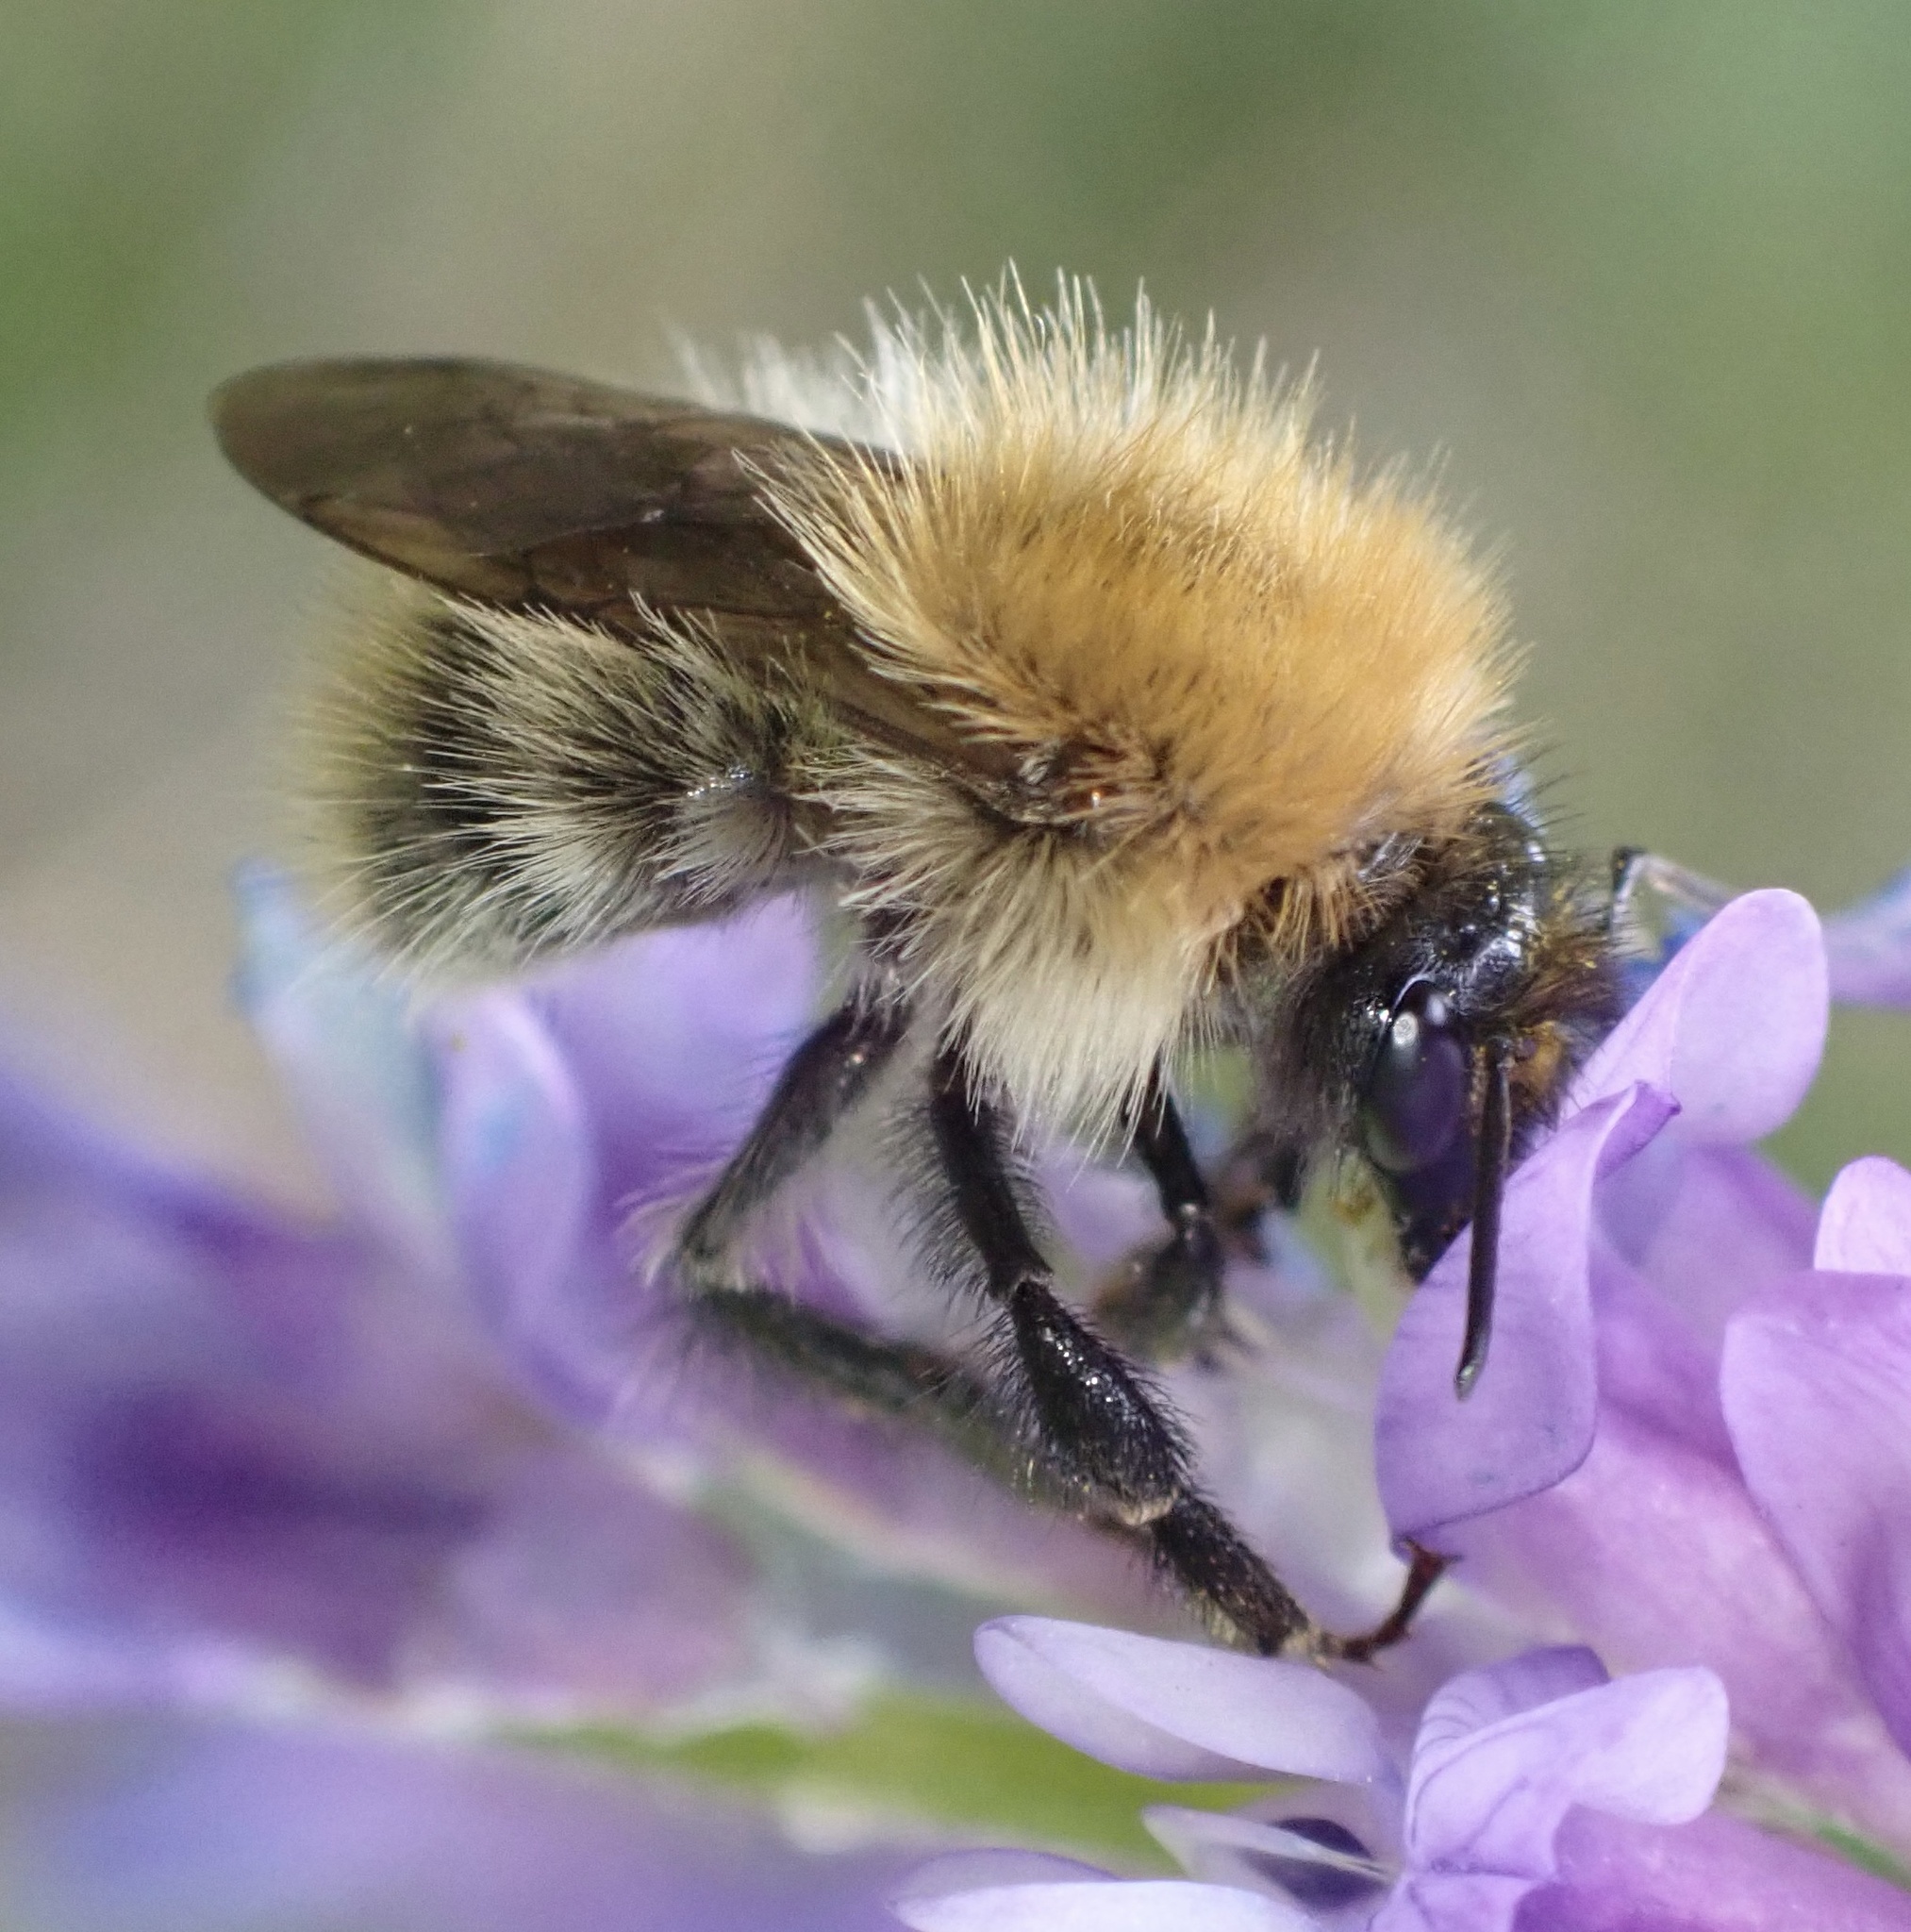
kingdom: Animalia
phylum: Arthropoda
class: Insecta
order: Hymenoptera
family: Apidae
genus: Bombus
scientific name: Bombus pascuorum
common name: Common carder bee
